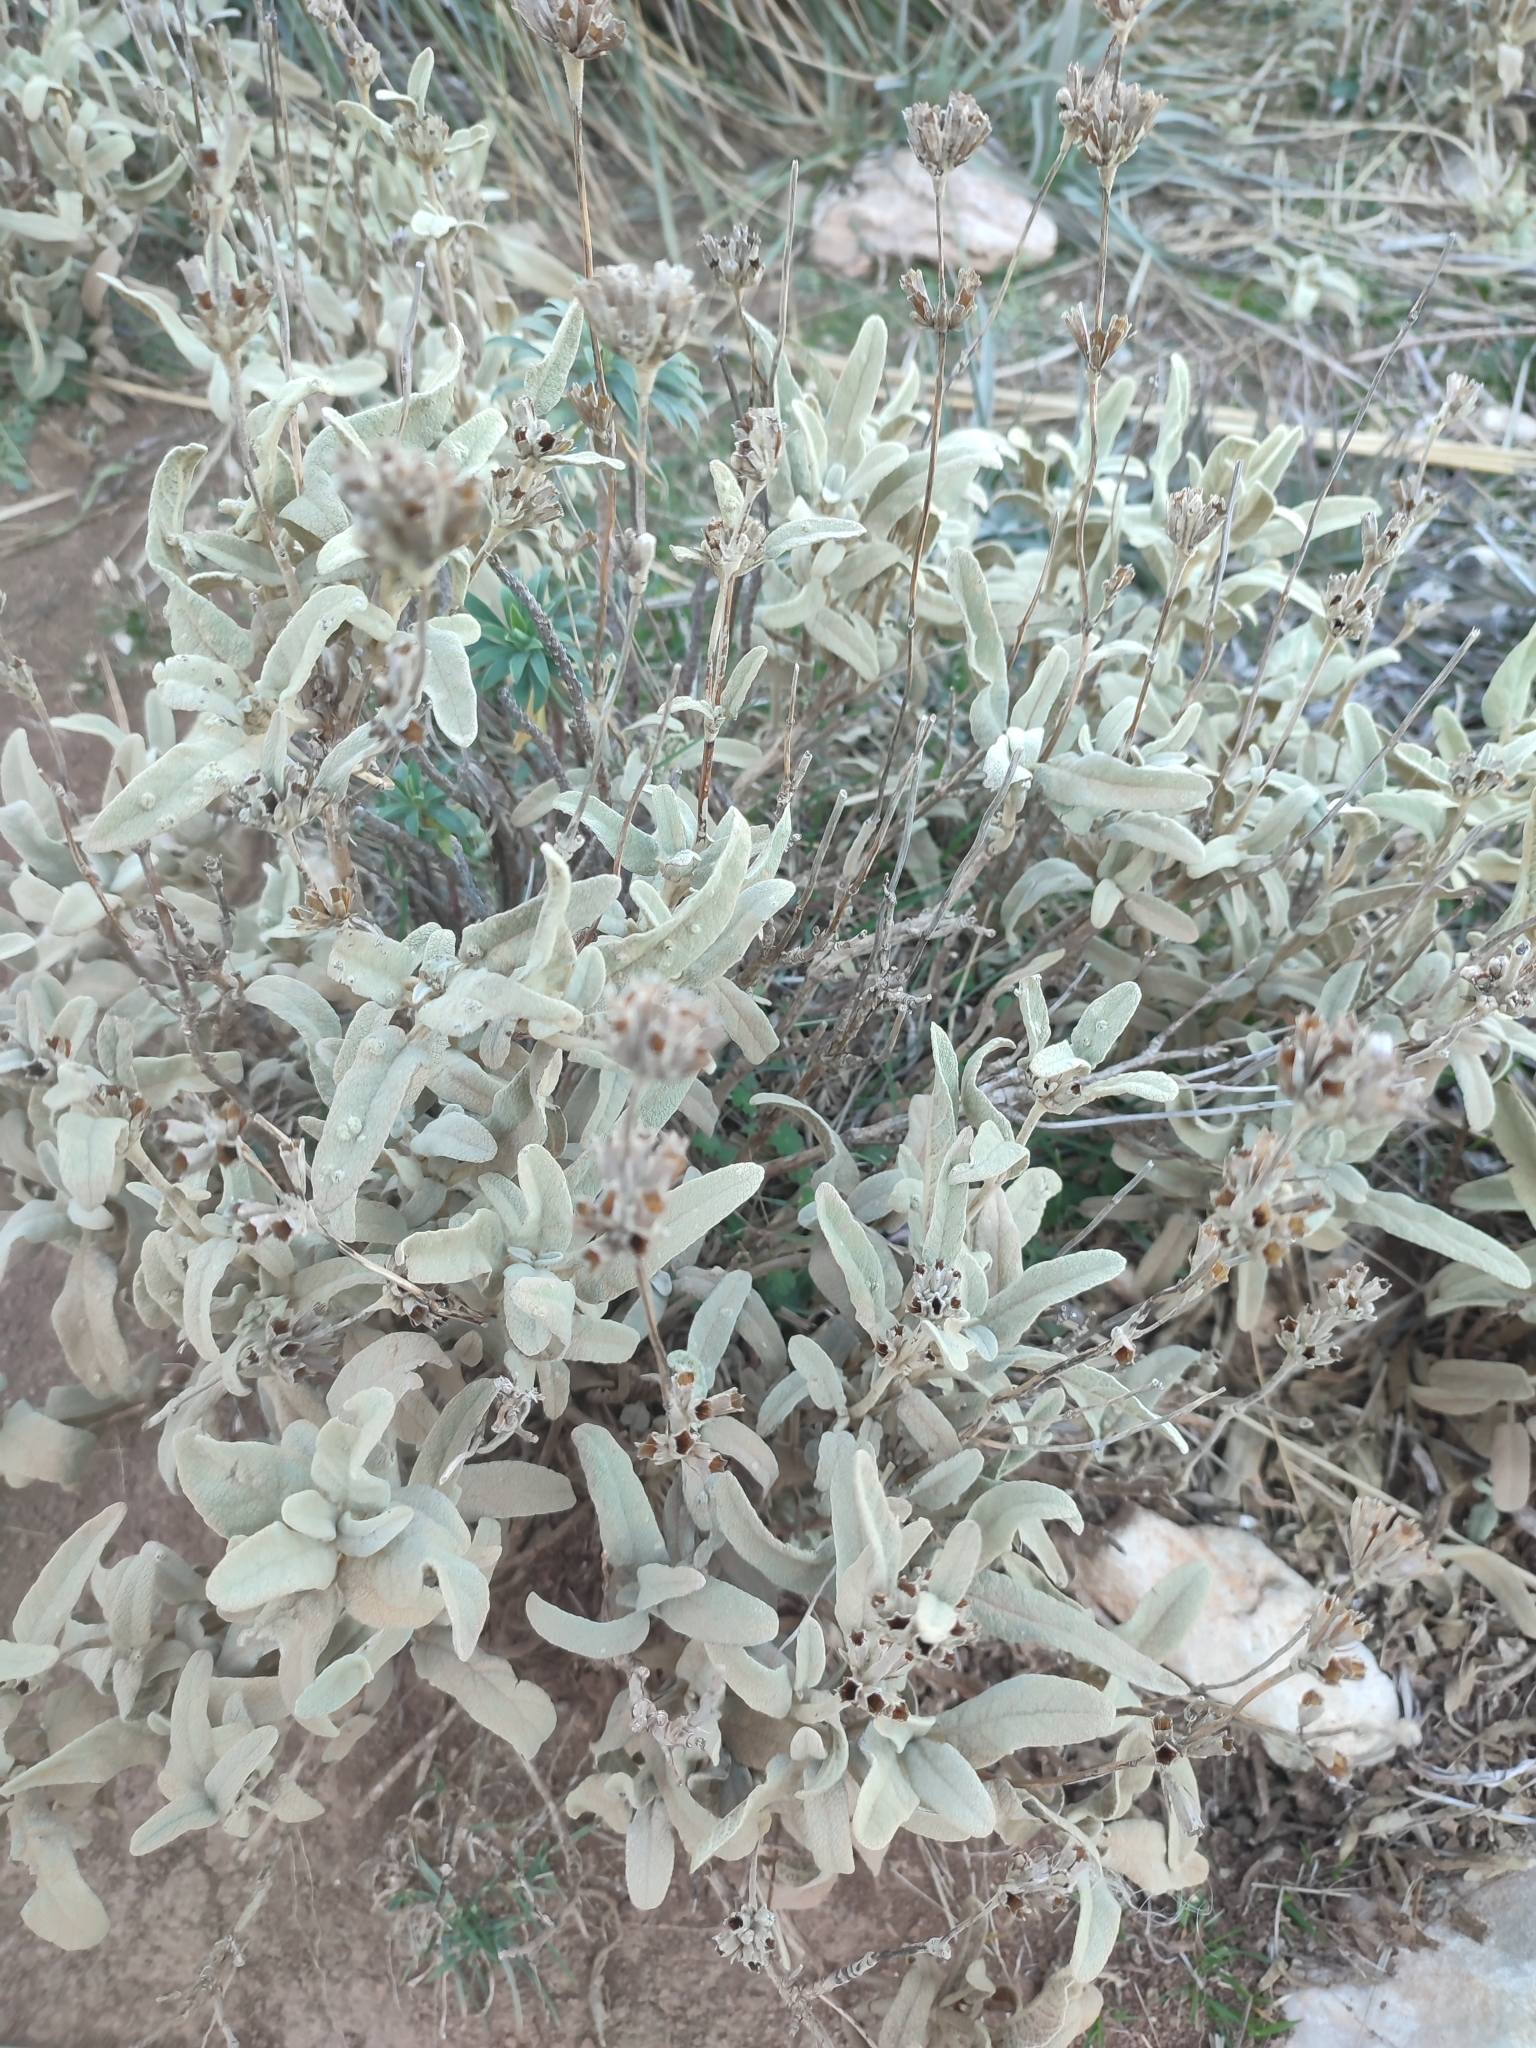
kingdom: Plantae
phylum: Tracheophyta
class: Magnoliopsida
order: Lamiales
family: Lamiaceae
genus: Phlomis
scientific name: Phlomis italica
